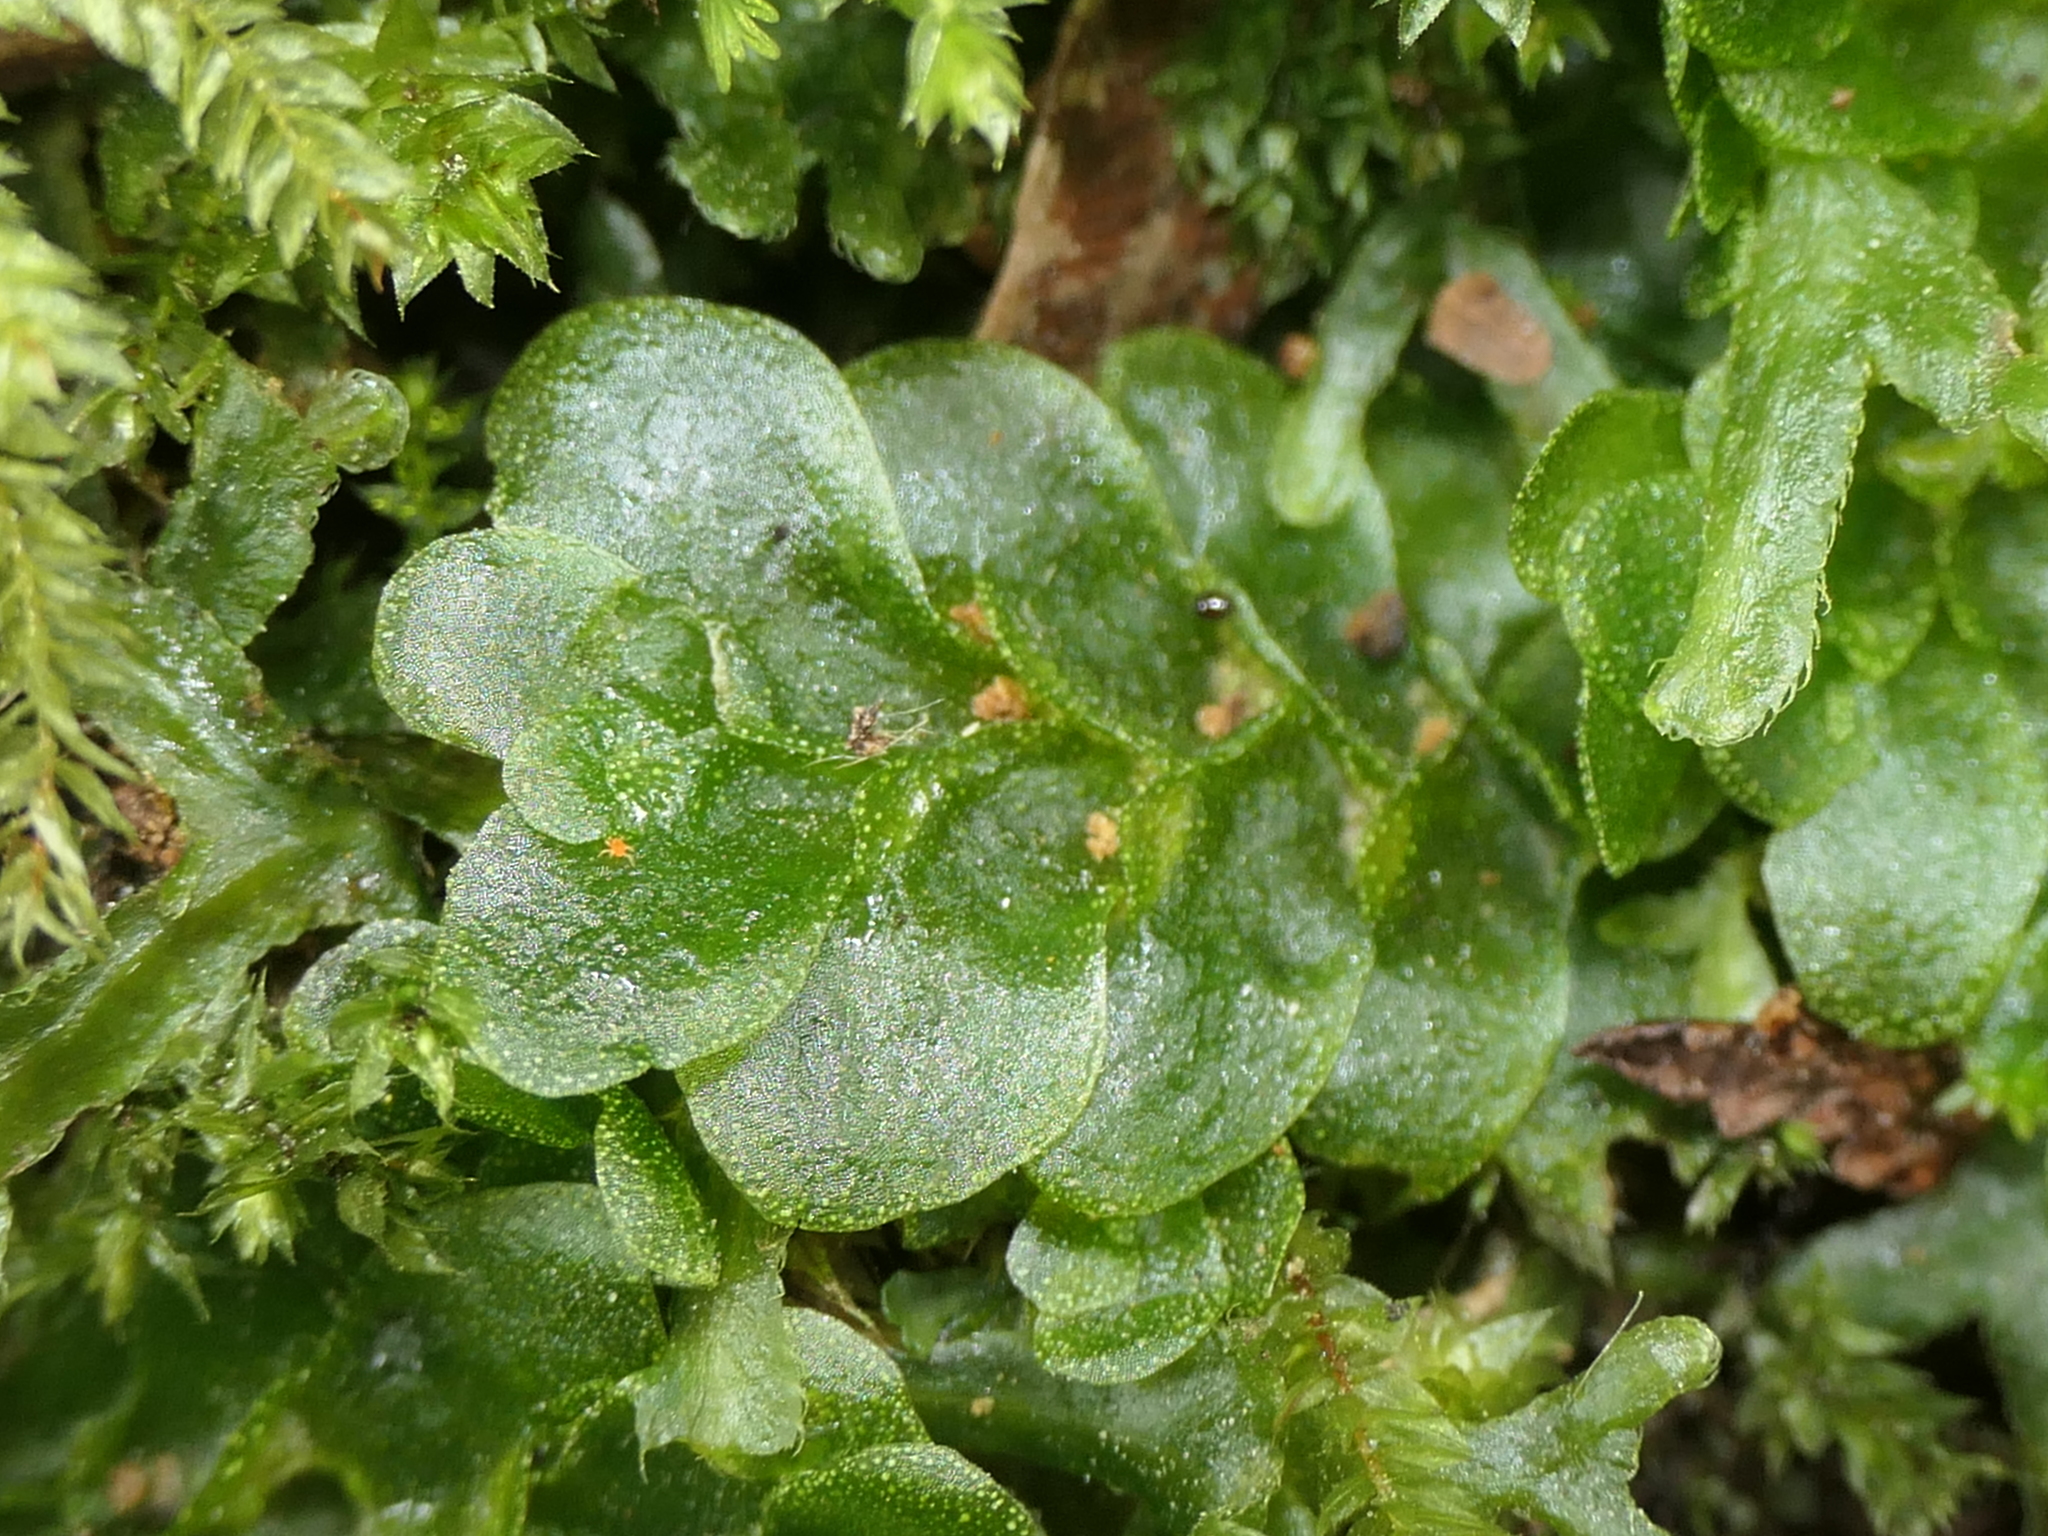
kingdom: Plantae
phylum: Marchantiophyta
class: Haplomitriopsida
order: Treubiales
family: Treubiaceae
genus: Treubia
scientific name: Treubia lacunosa
